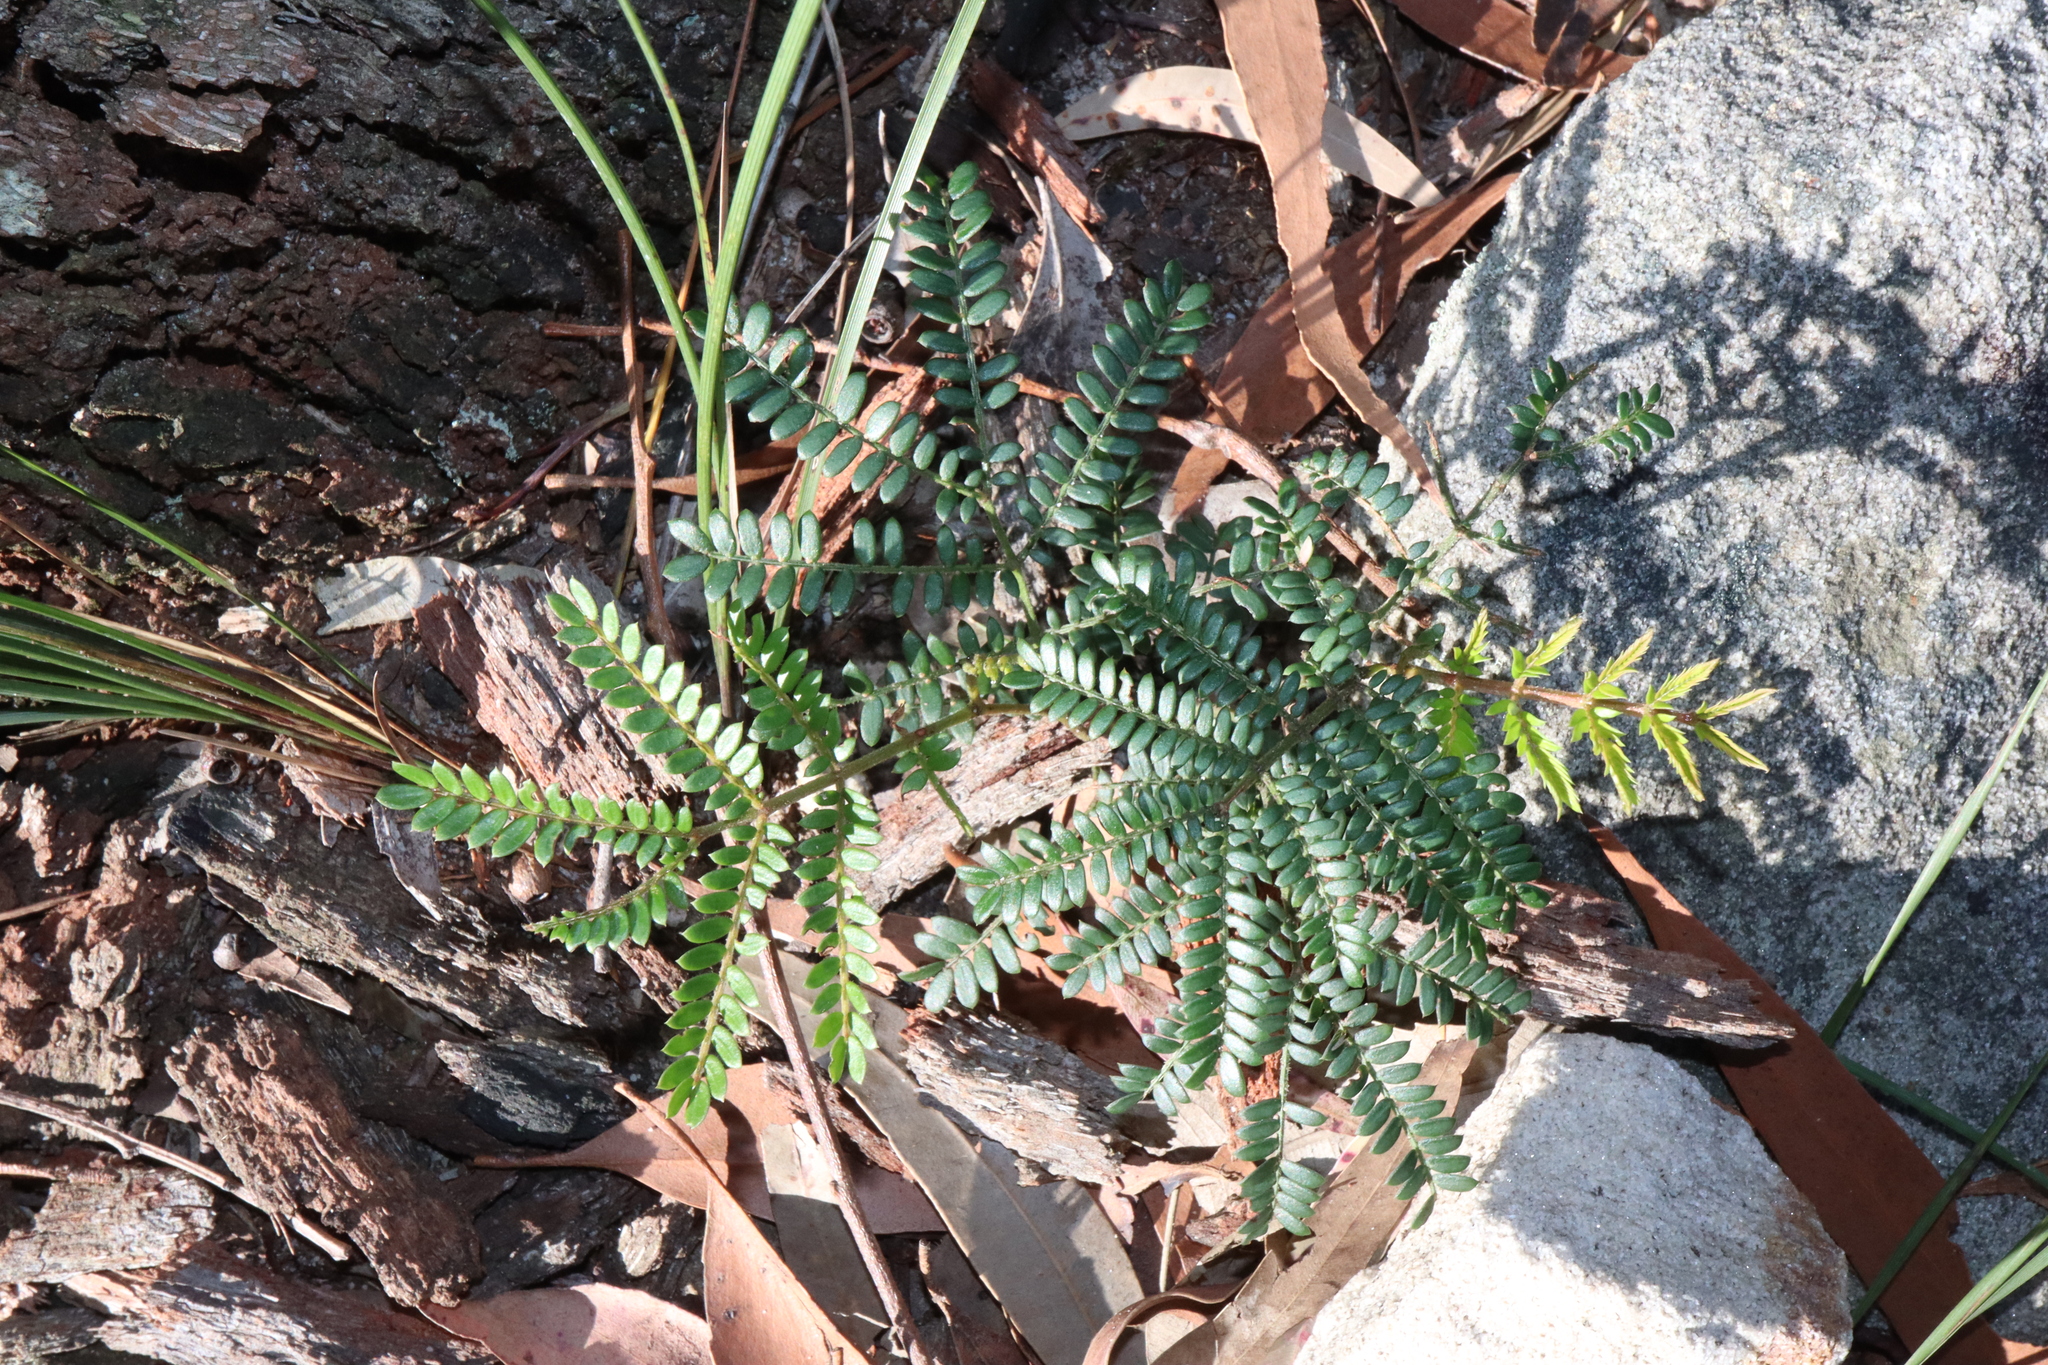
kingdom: Plantae
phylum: Tracheophyta
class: Magnoliopsida
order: Fabales
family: Fabaceae
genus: Acacia
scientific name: Acacia terminalis
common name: Cedar wattle
